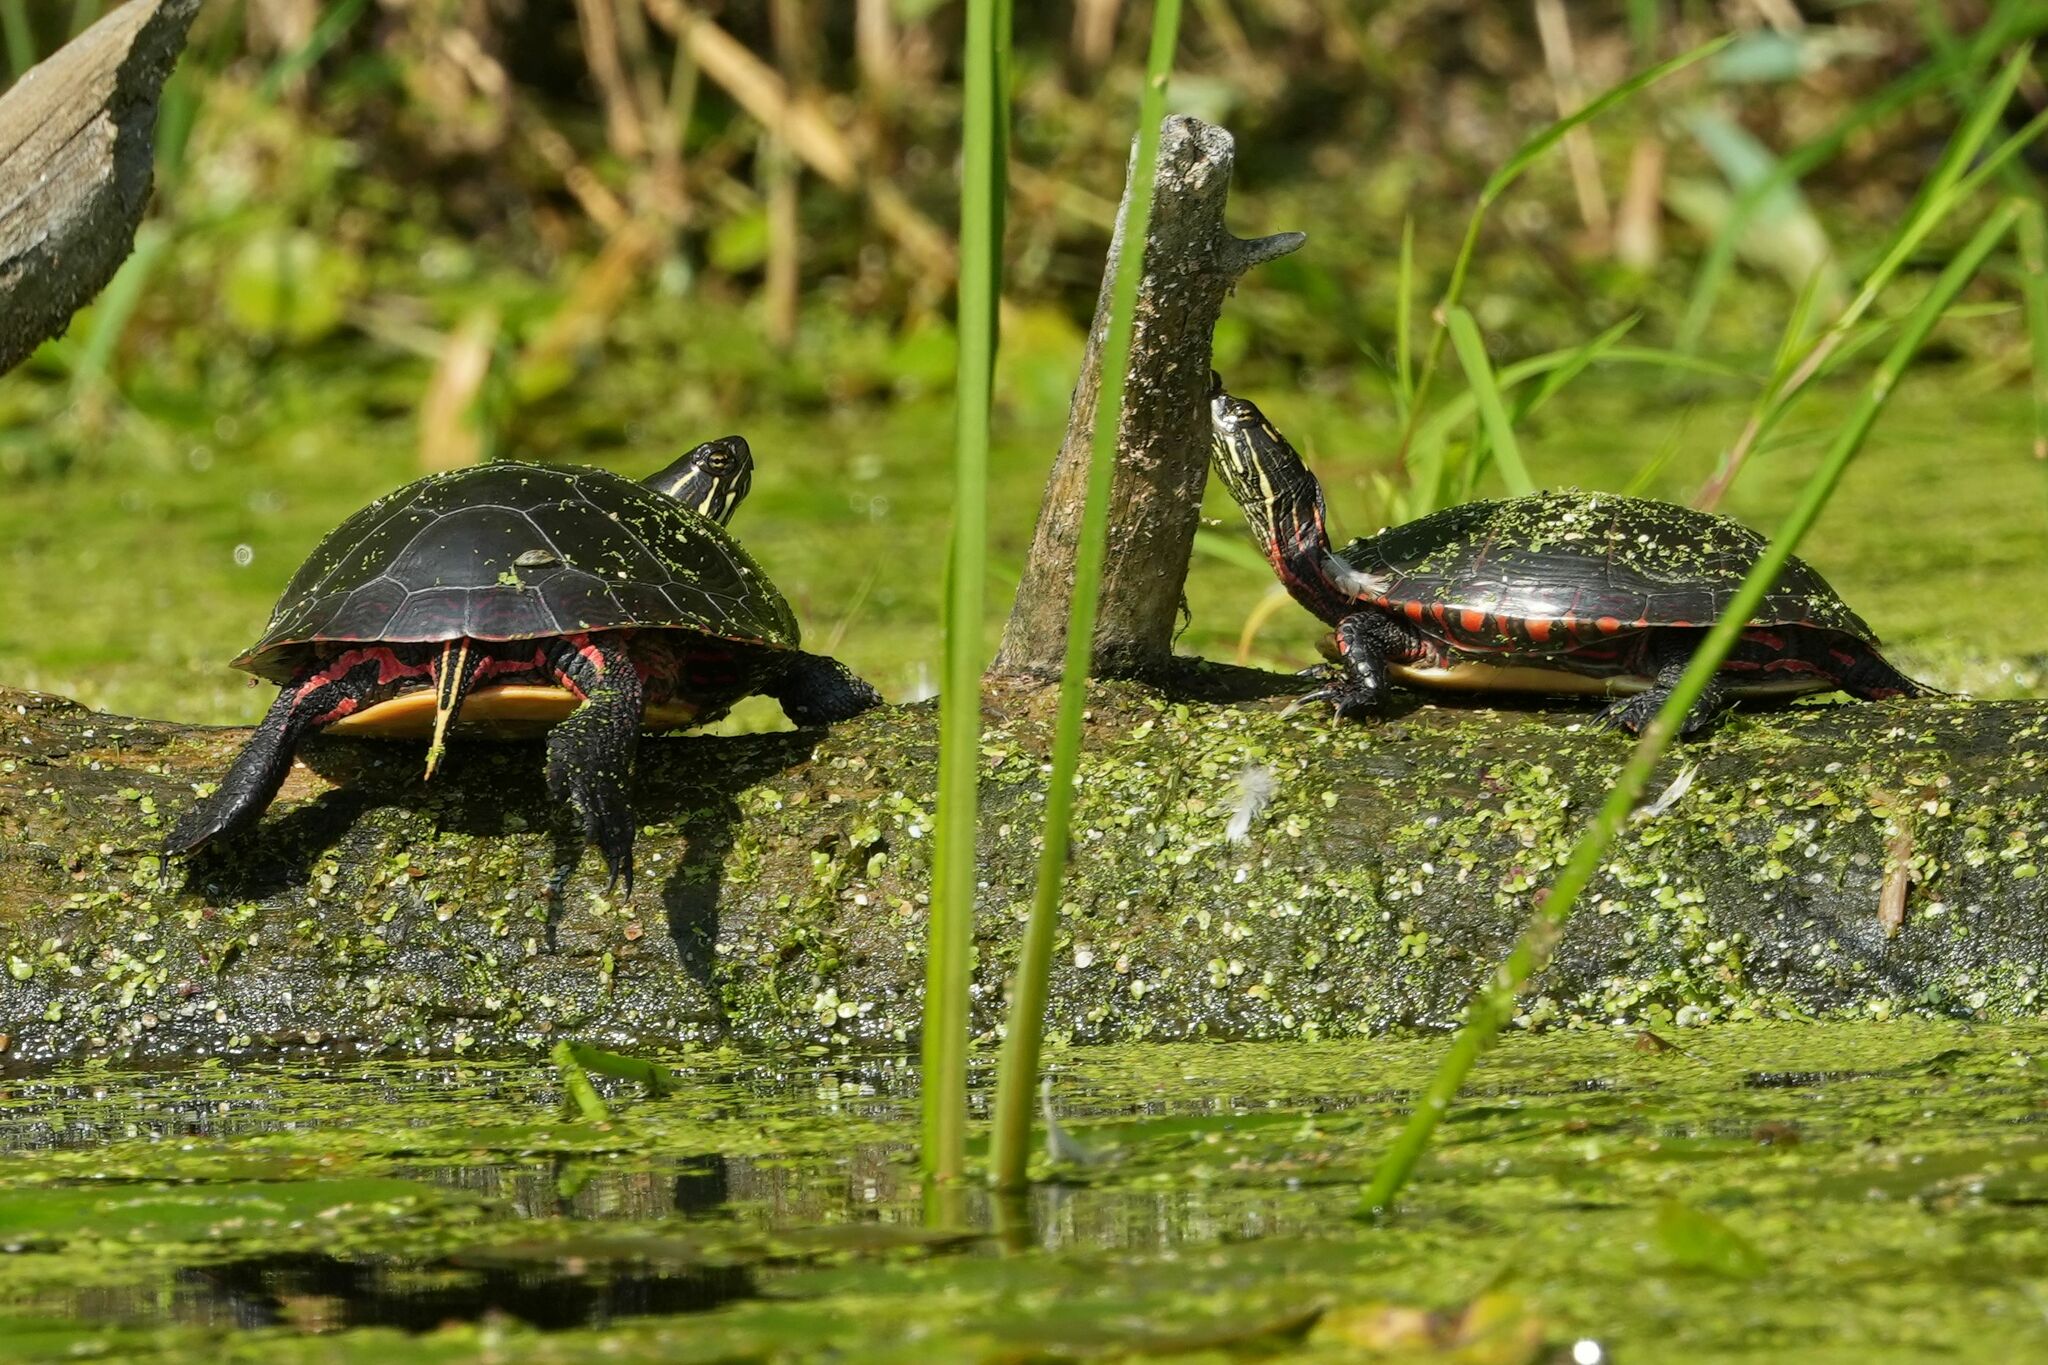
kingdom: Animalia
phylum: Chordata
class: Testudines
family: Emydidae
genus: Chrysemys
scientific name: Chrysemys picta
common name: Painted turtle
